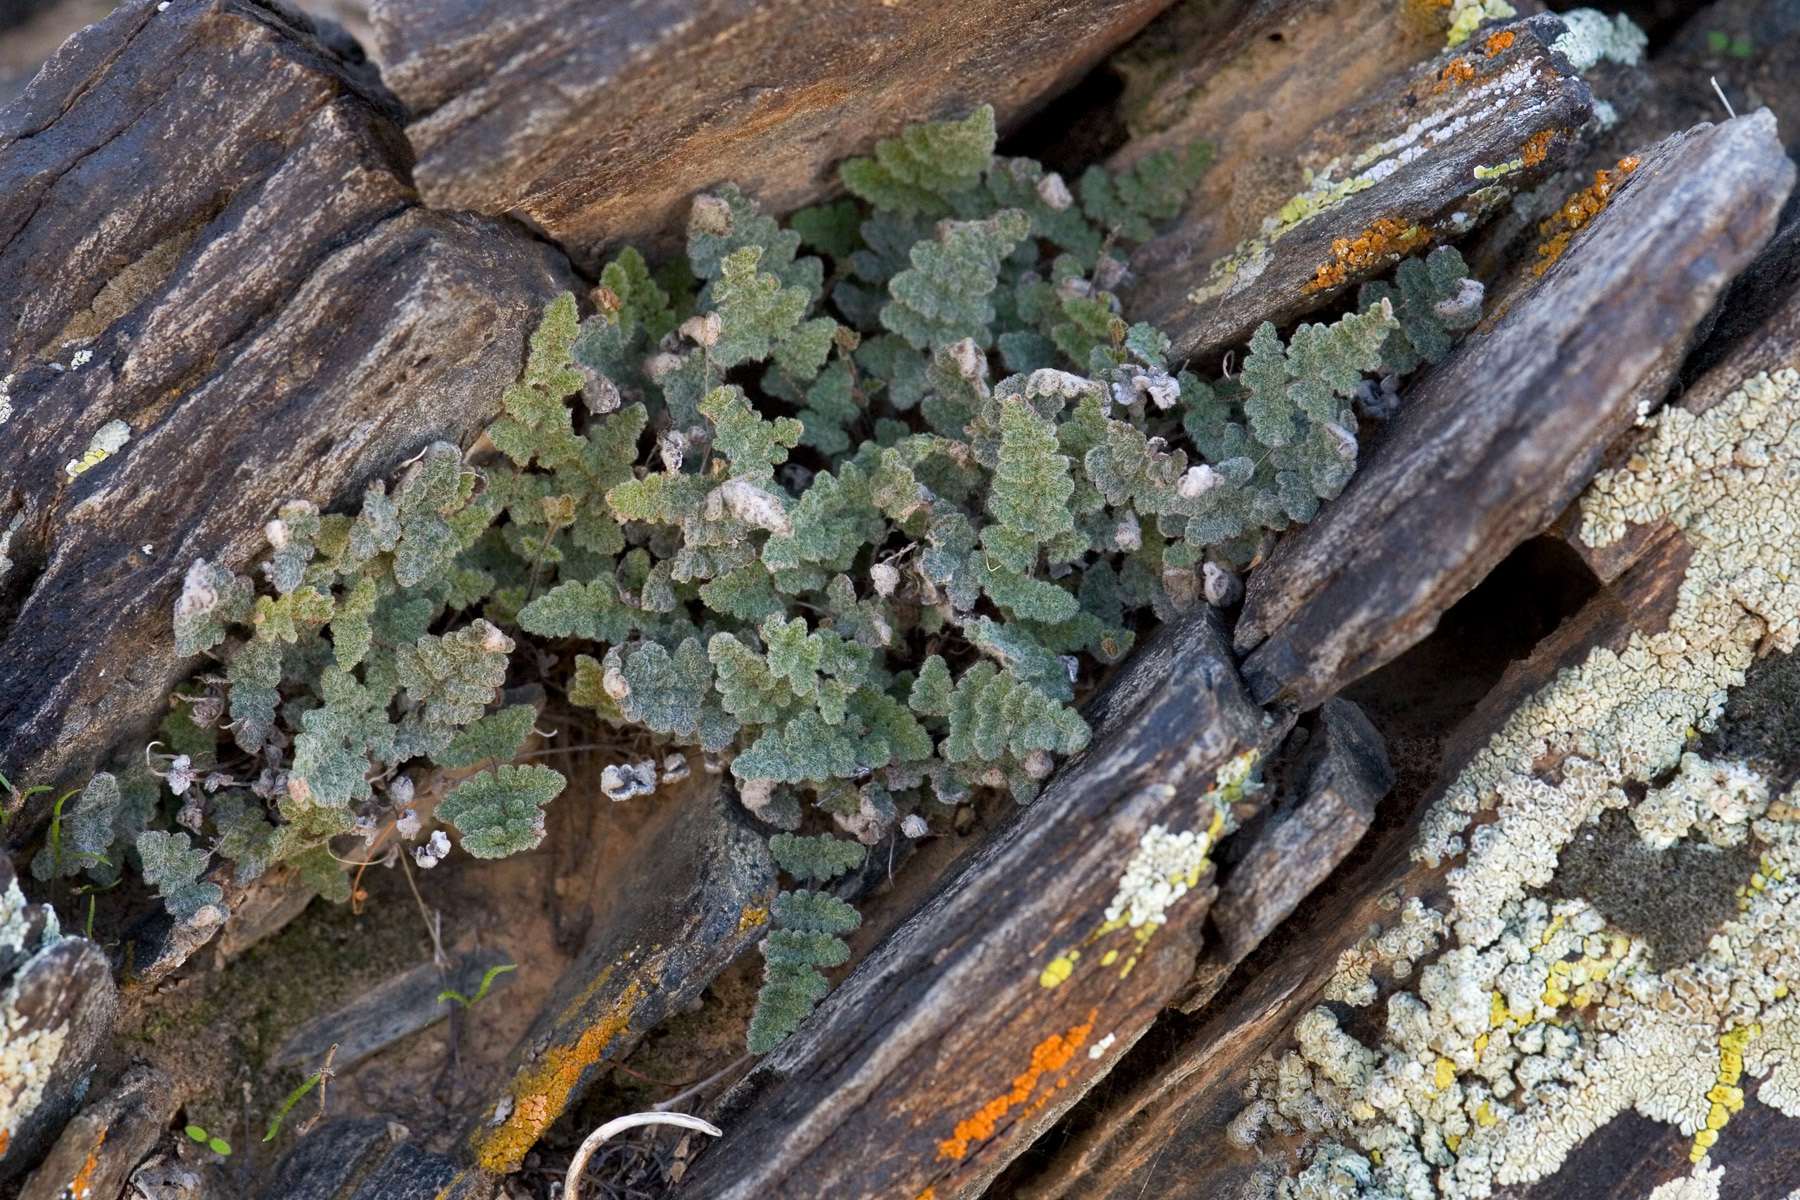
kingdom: Plantae
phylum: Tracheophyta
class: Polypodiopsida
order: Polypodiales
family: Pteridaceae
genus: Myriopteris
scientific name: Myriopteris parryi
